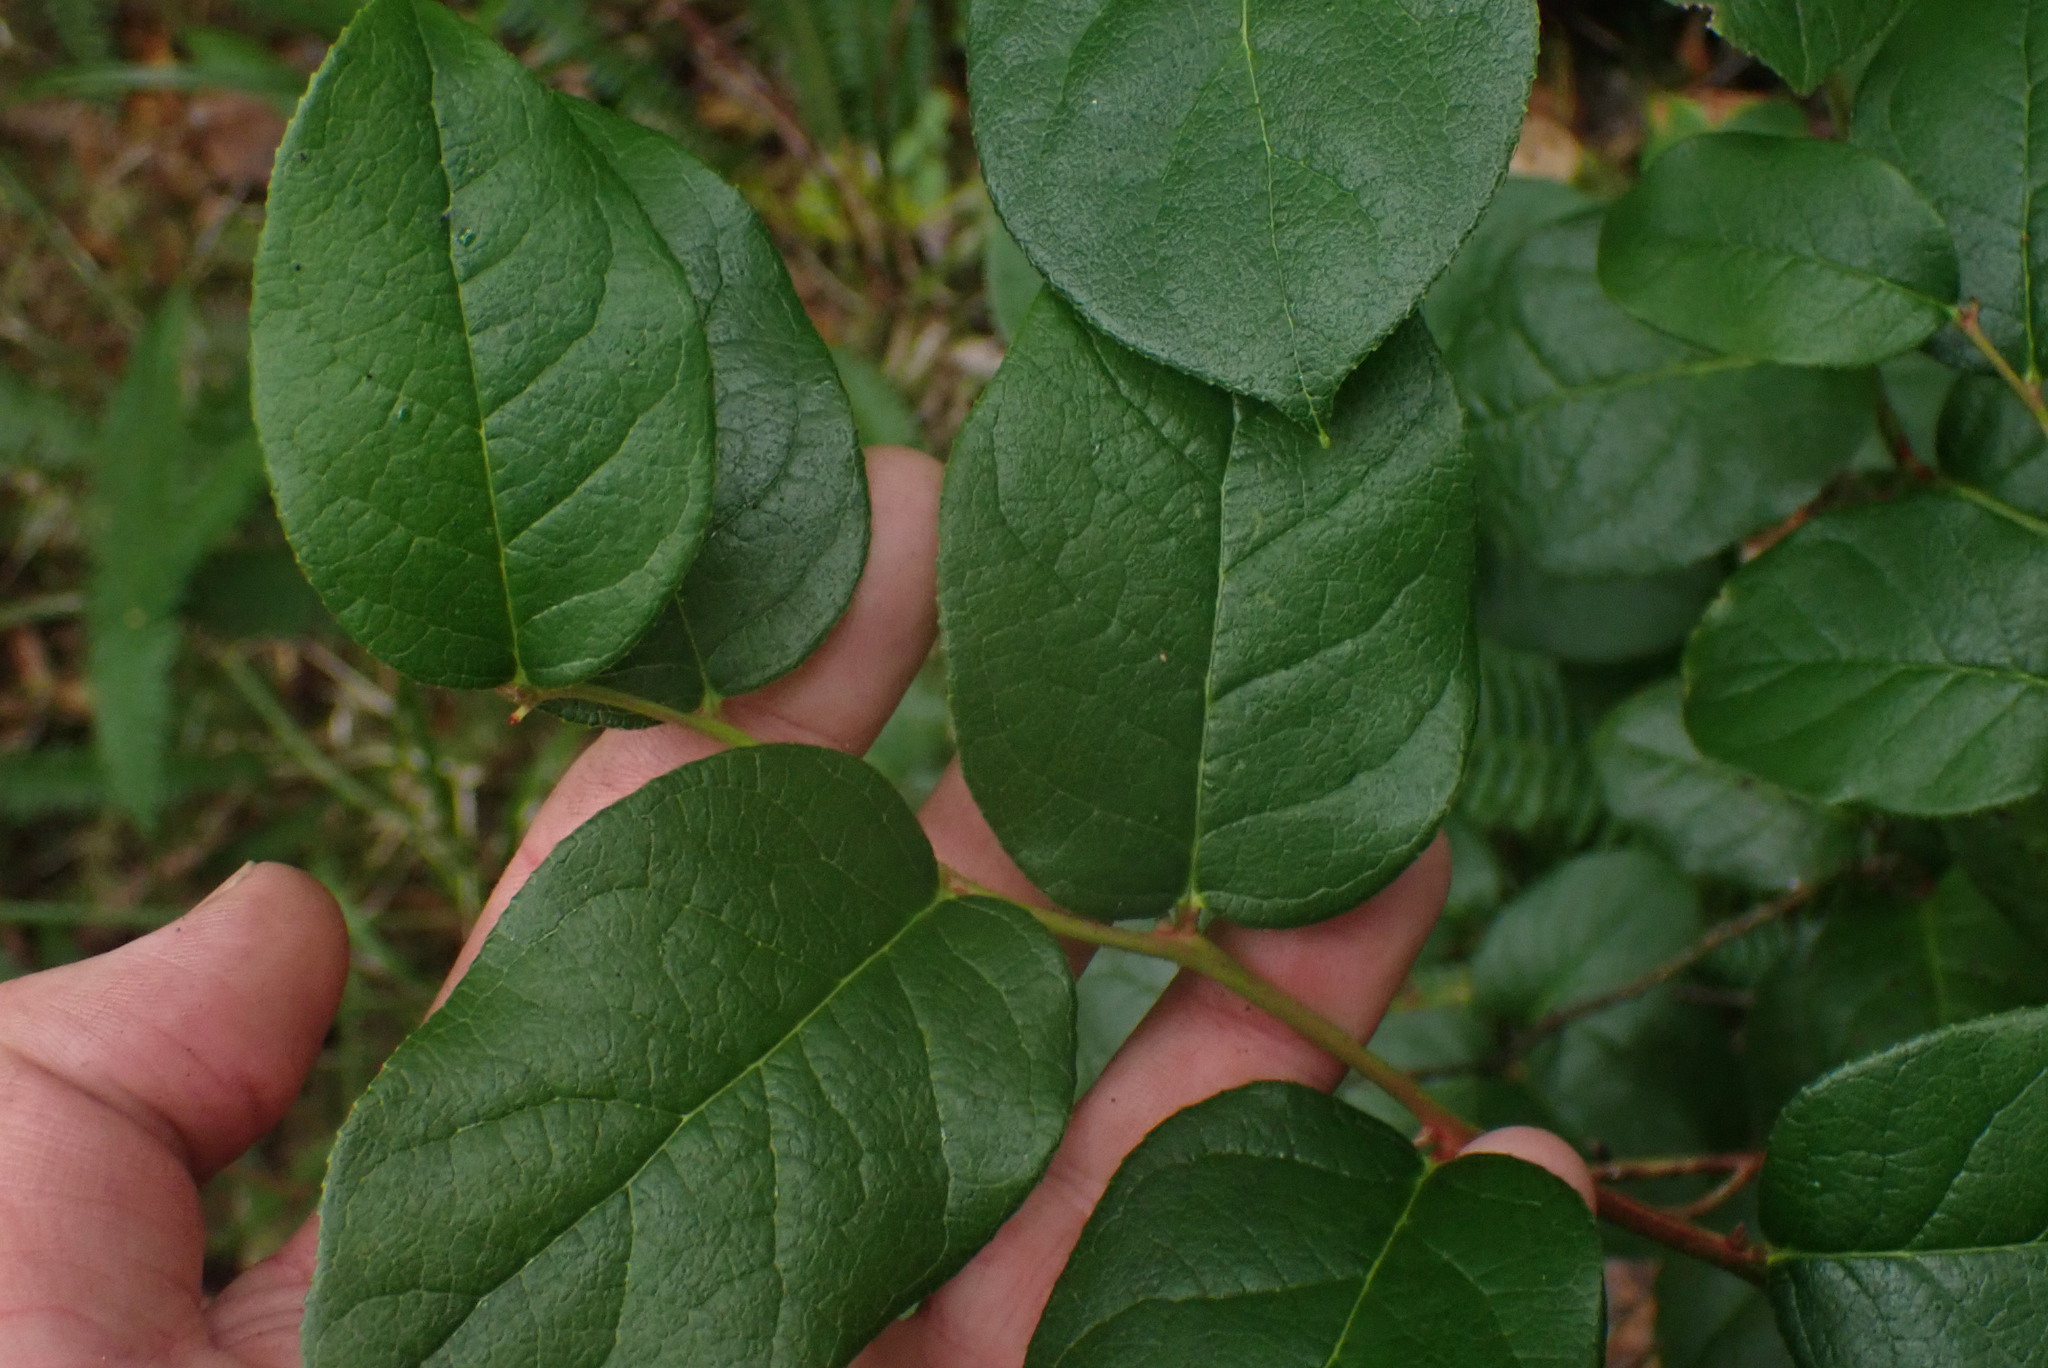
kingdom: Plantae
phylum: Tracheophyta
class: Magnoliopsida
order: Ericales
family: Ericaceae
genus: Gaultheria
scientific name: Gaultheria shallon
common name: Shallon
